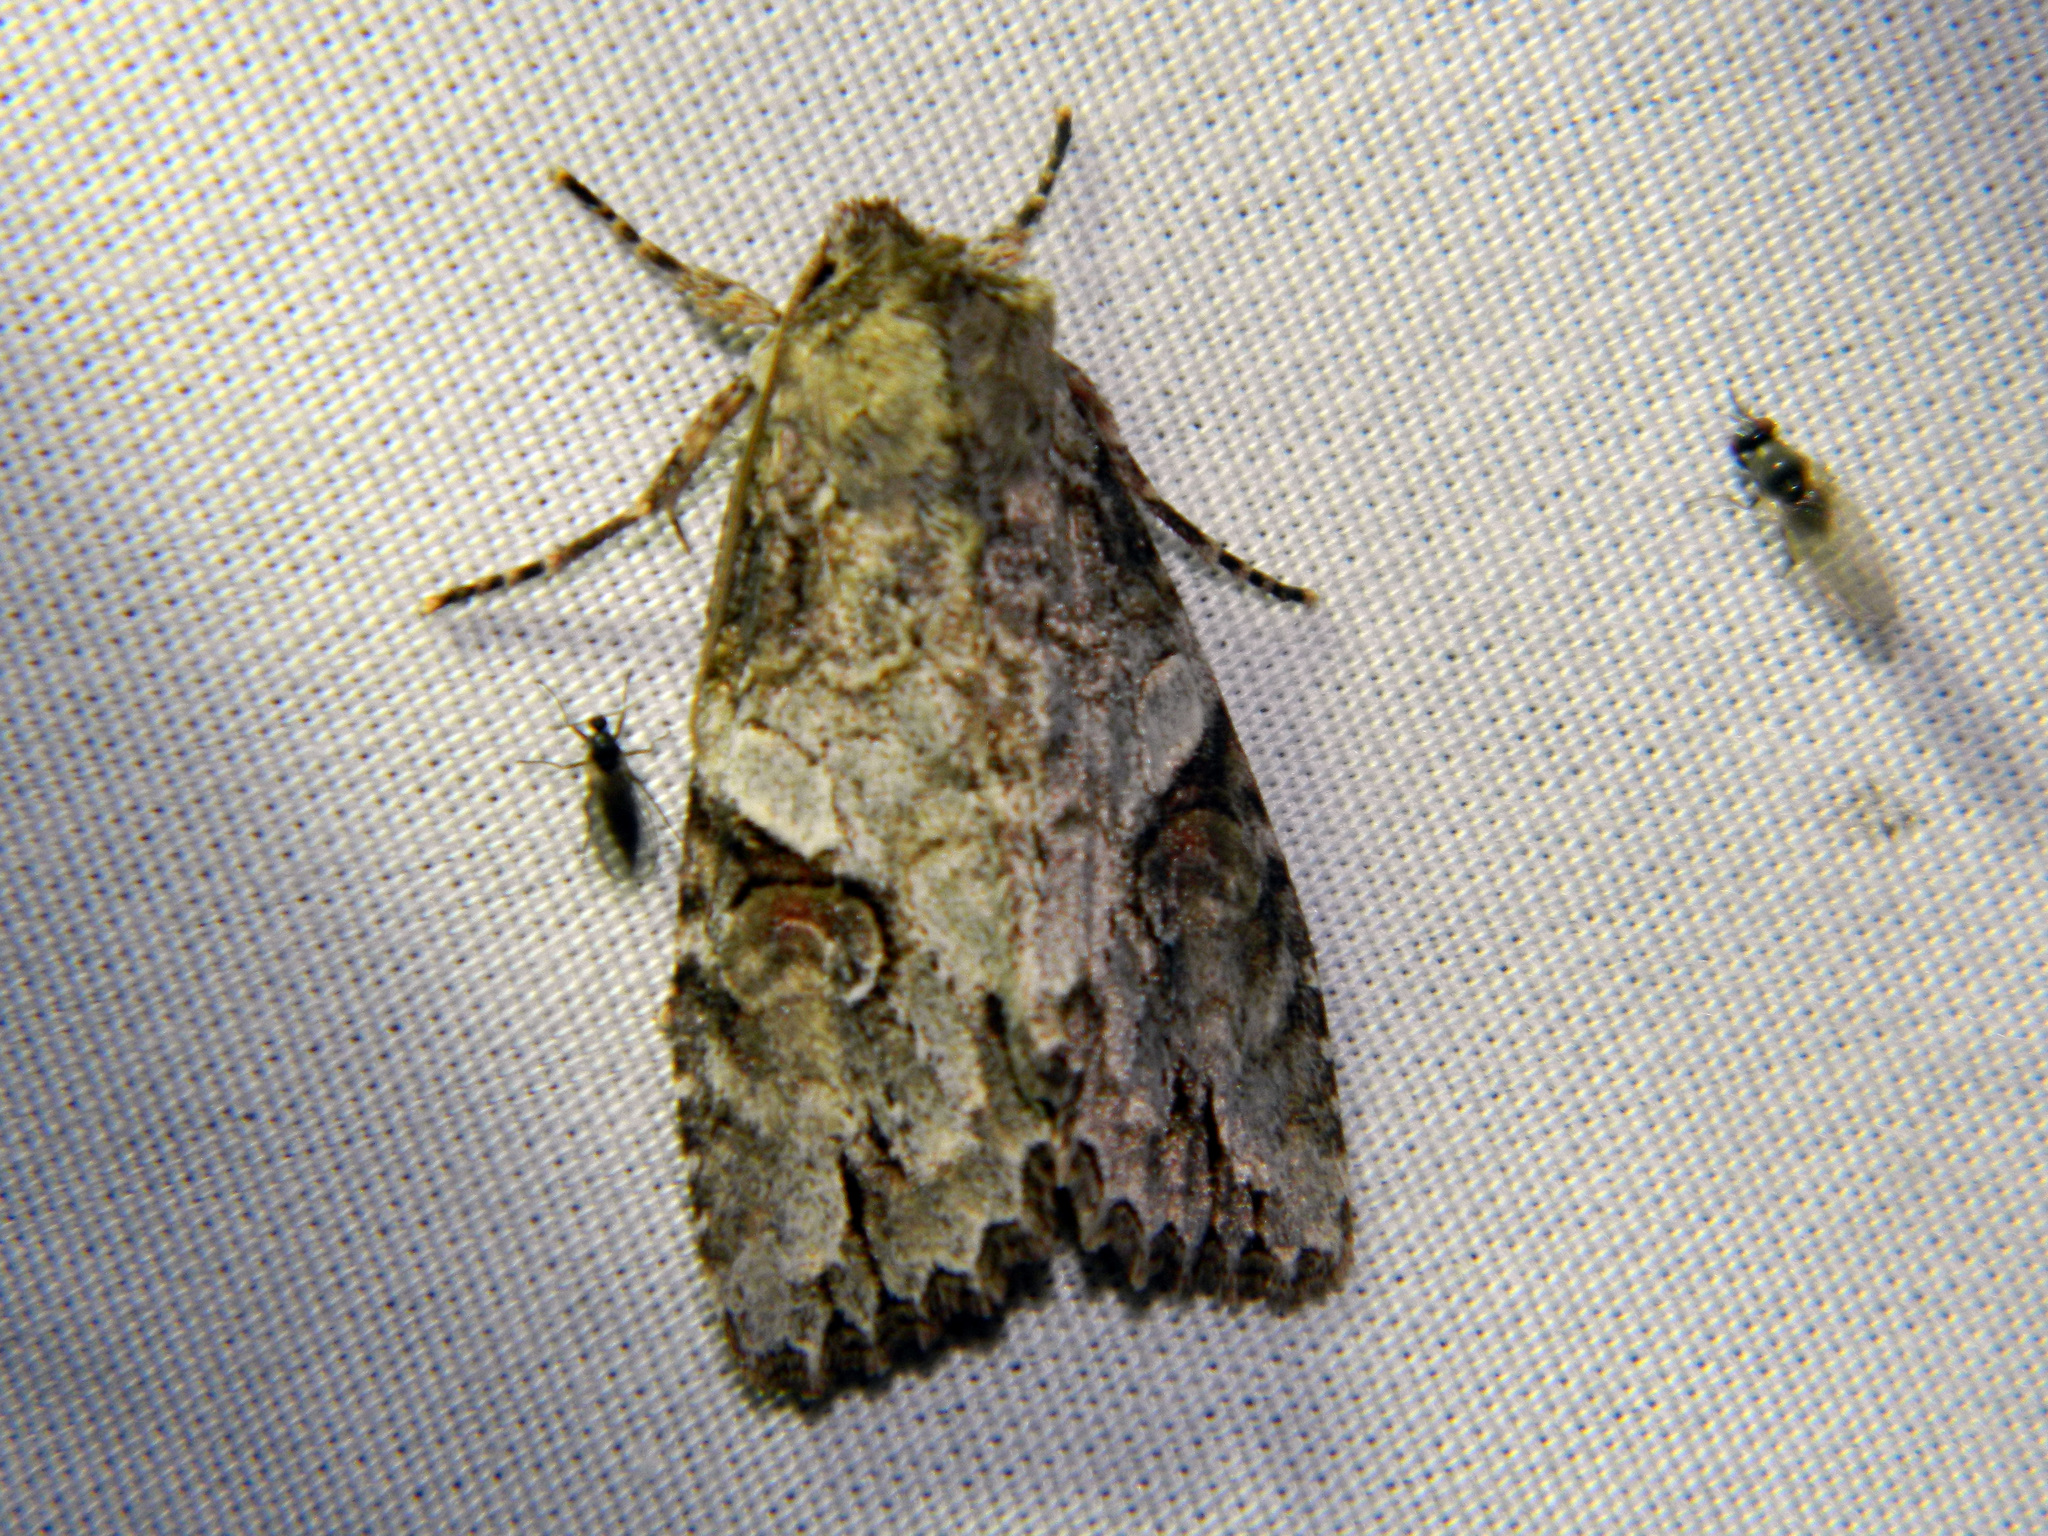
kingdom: Animalia
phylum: Arthropoda
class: Insecta
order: Lepidoptera
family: Noctuidae
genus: Achatia
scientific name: Achatia latex
